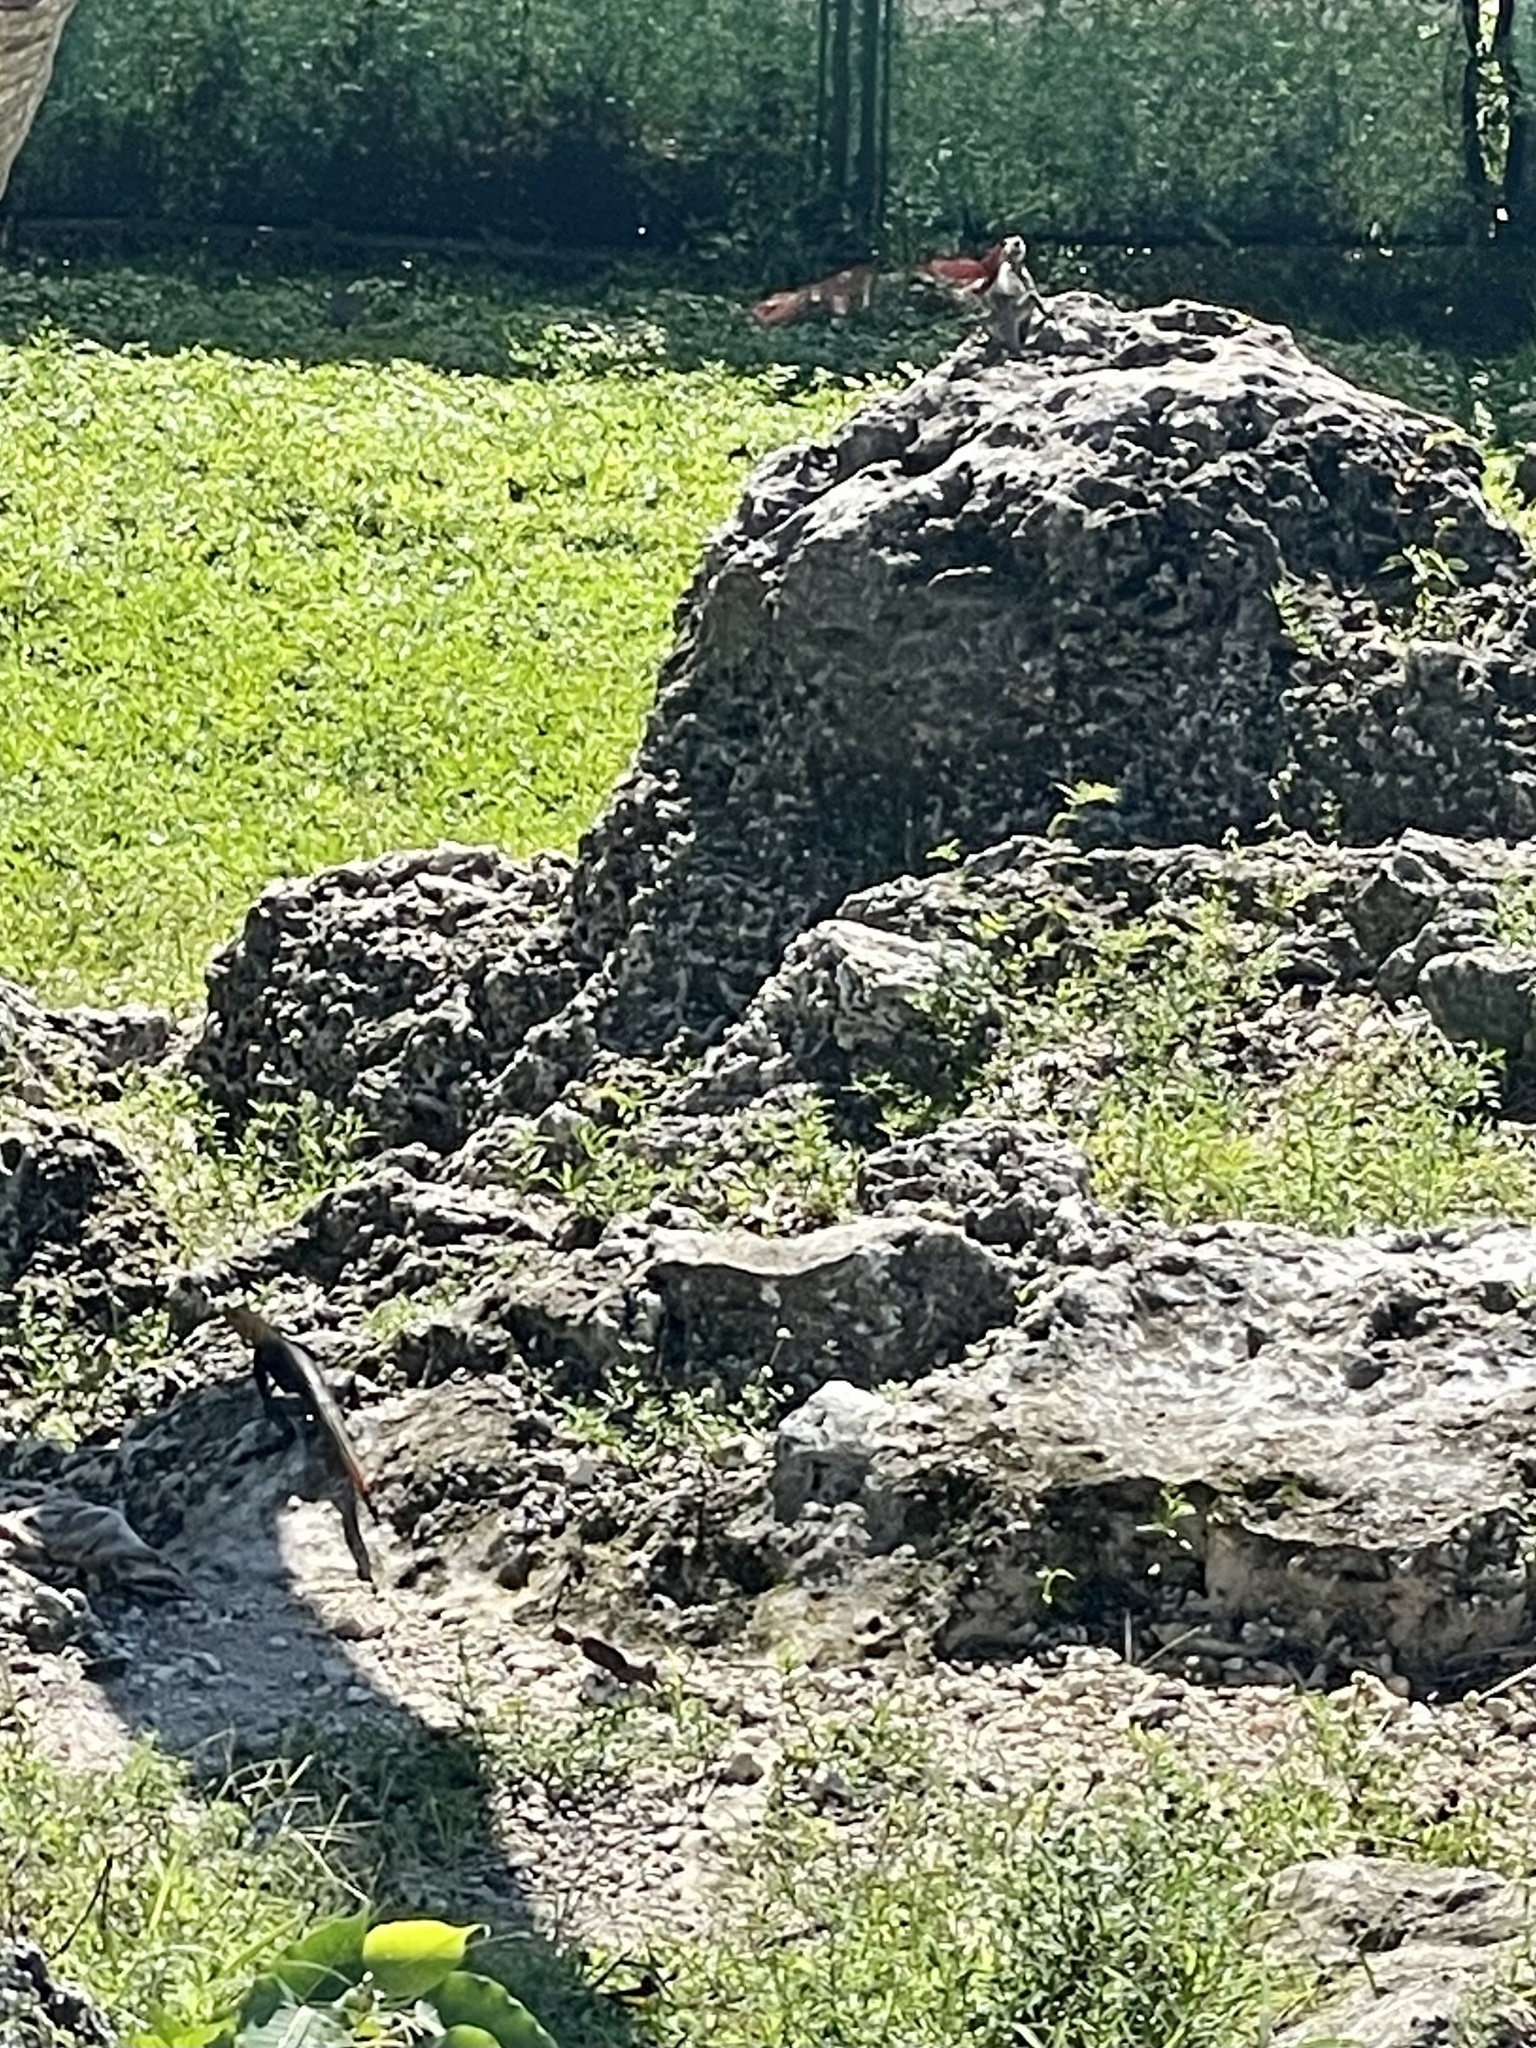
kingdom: Animalia
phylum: Chordata
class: Squamata
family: Agamidae
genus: Agama
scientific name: Agama picticauda
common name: Red-headed agama
